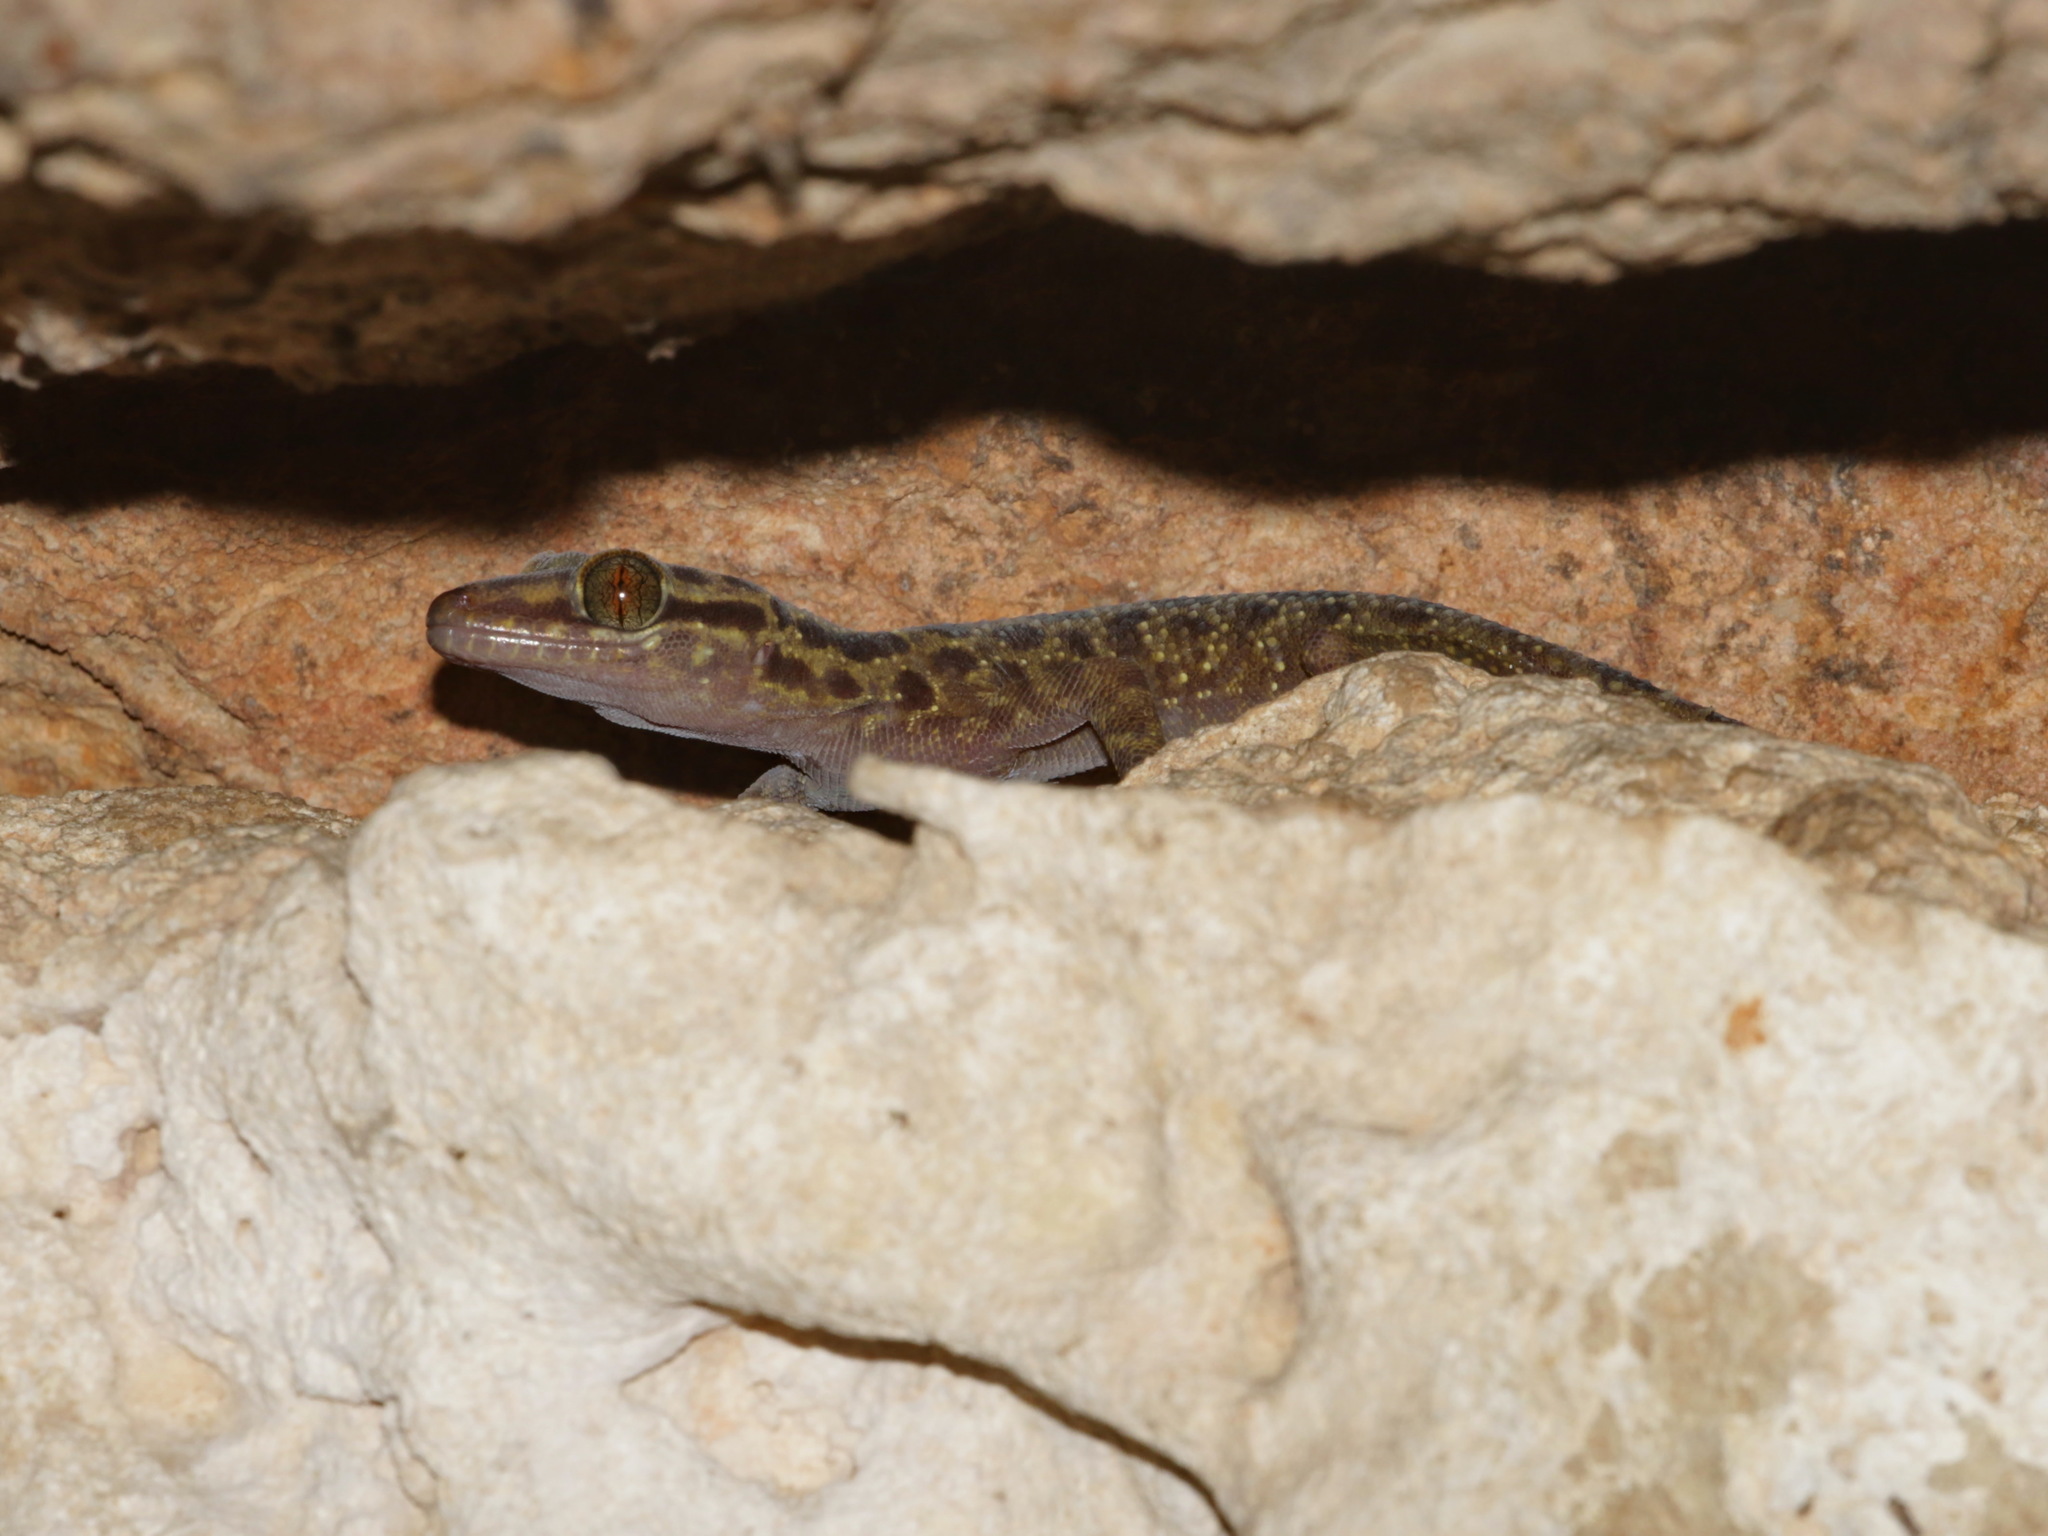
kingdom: Animalia
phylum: Chordata
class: Squamata
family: Gekkonidae
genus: Cyrtodactylus
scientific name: Cyrtodactylus erythrops
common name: Red-eyed bent-toed gecko
